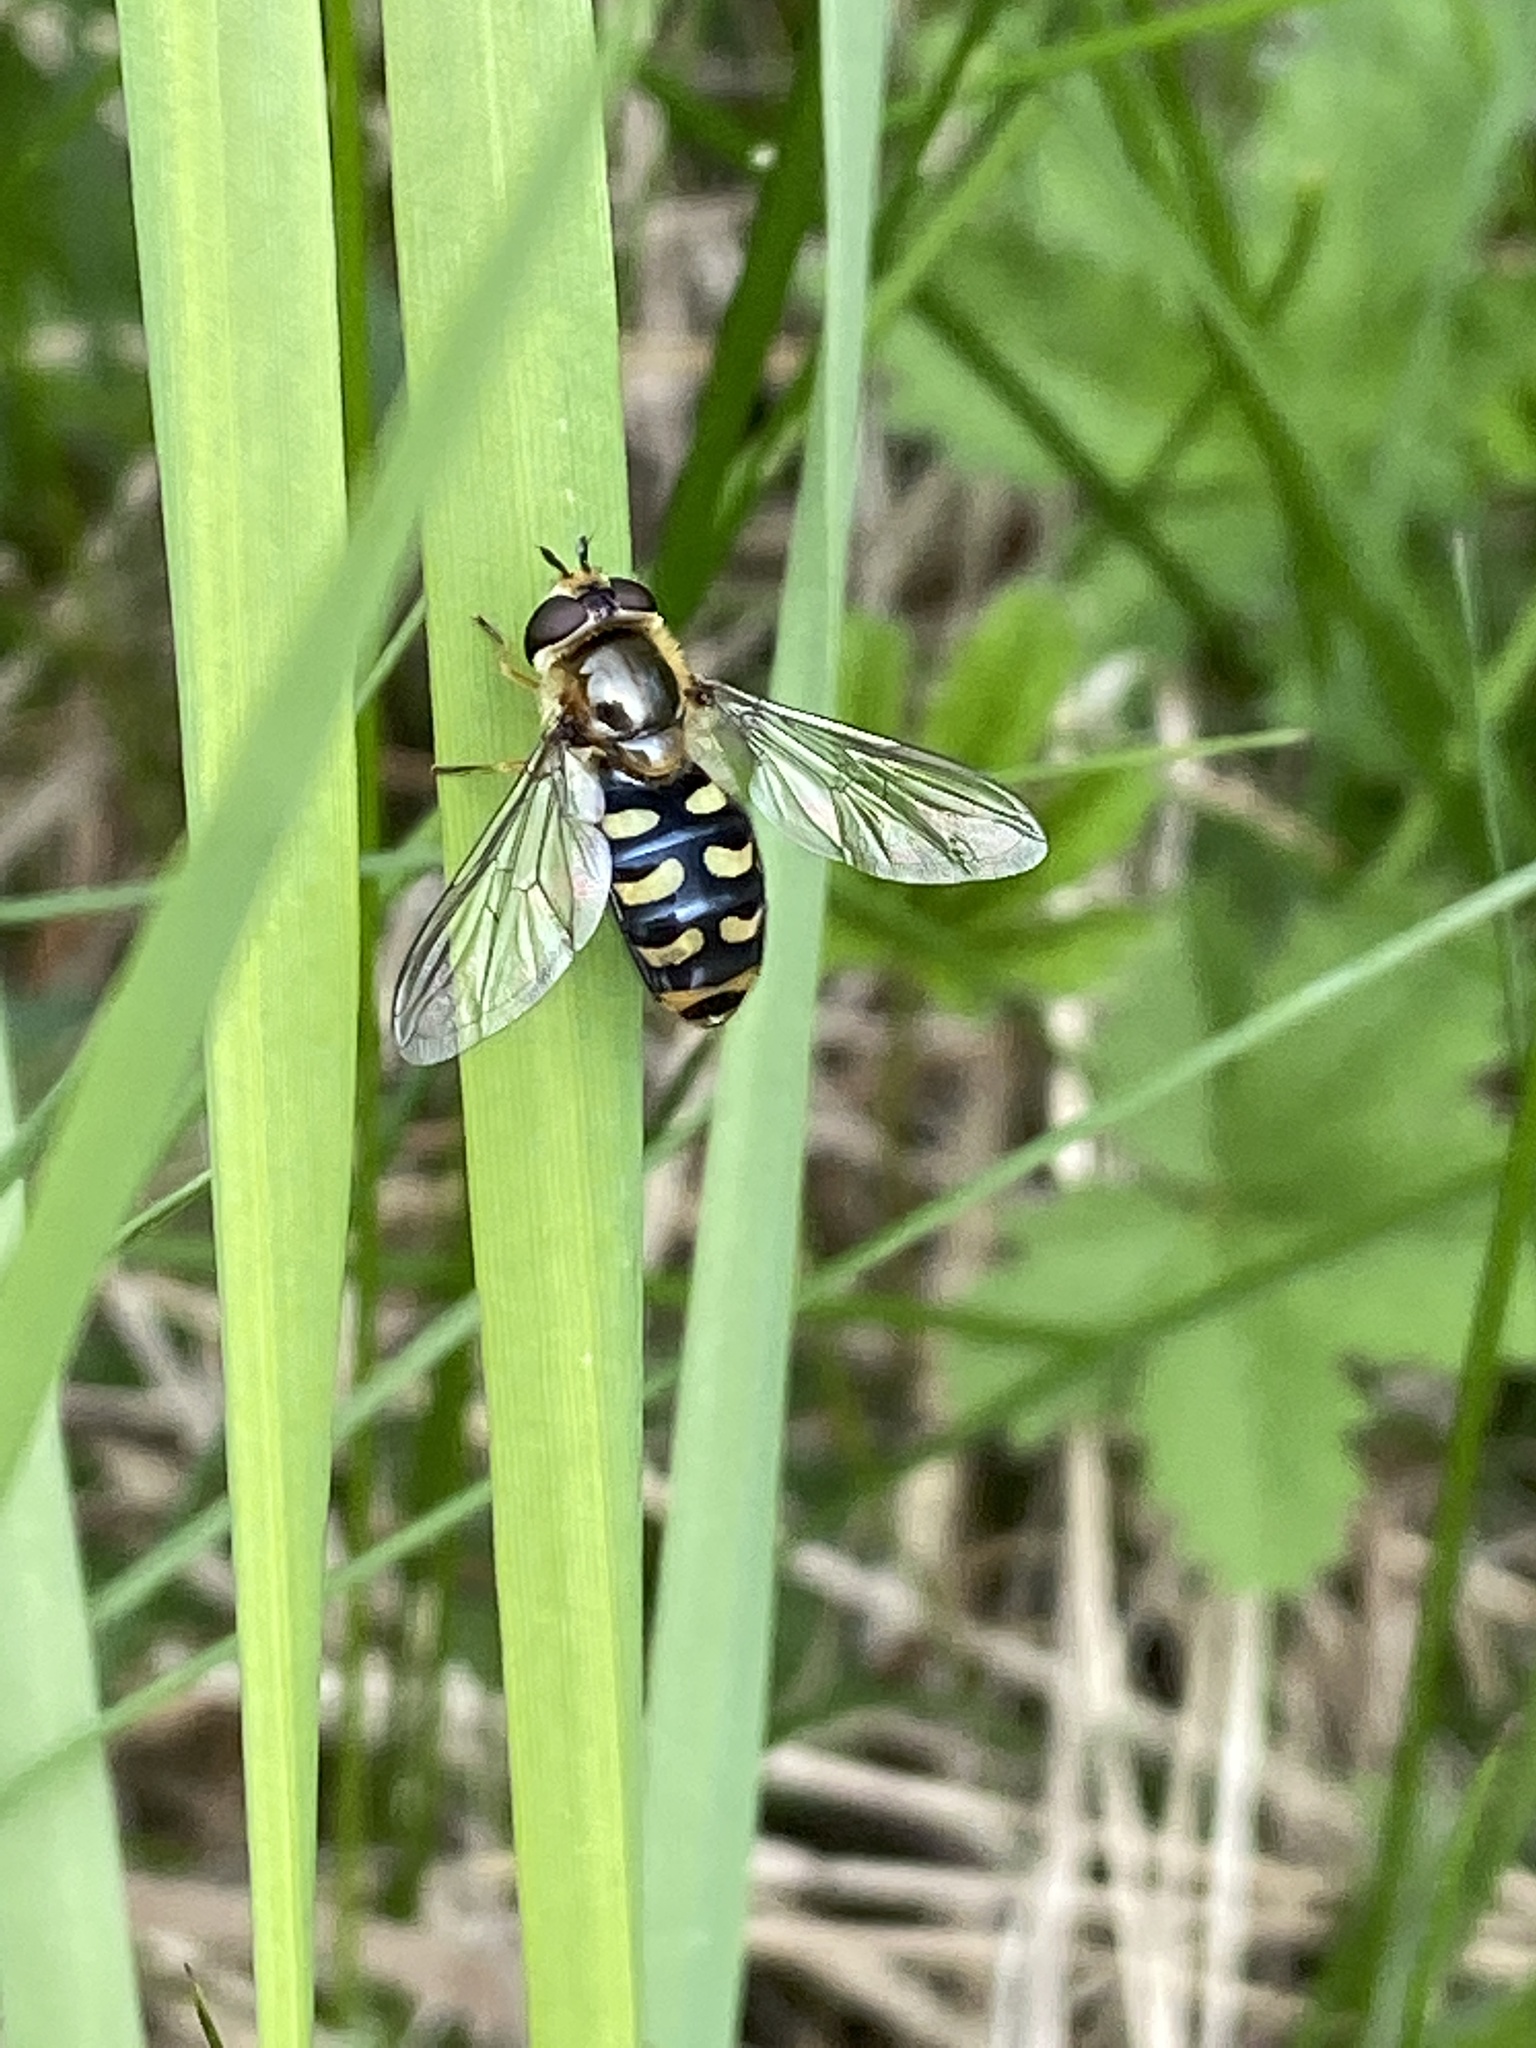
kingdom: Animalia
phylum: Arthropoda
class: Insecta
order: Diptera
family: Syrphidae
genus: Eupeodes
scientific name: Eupeodes luniger
